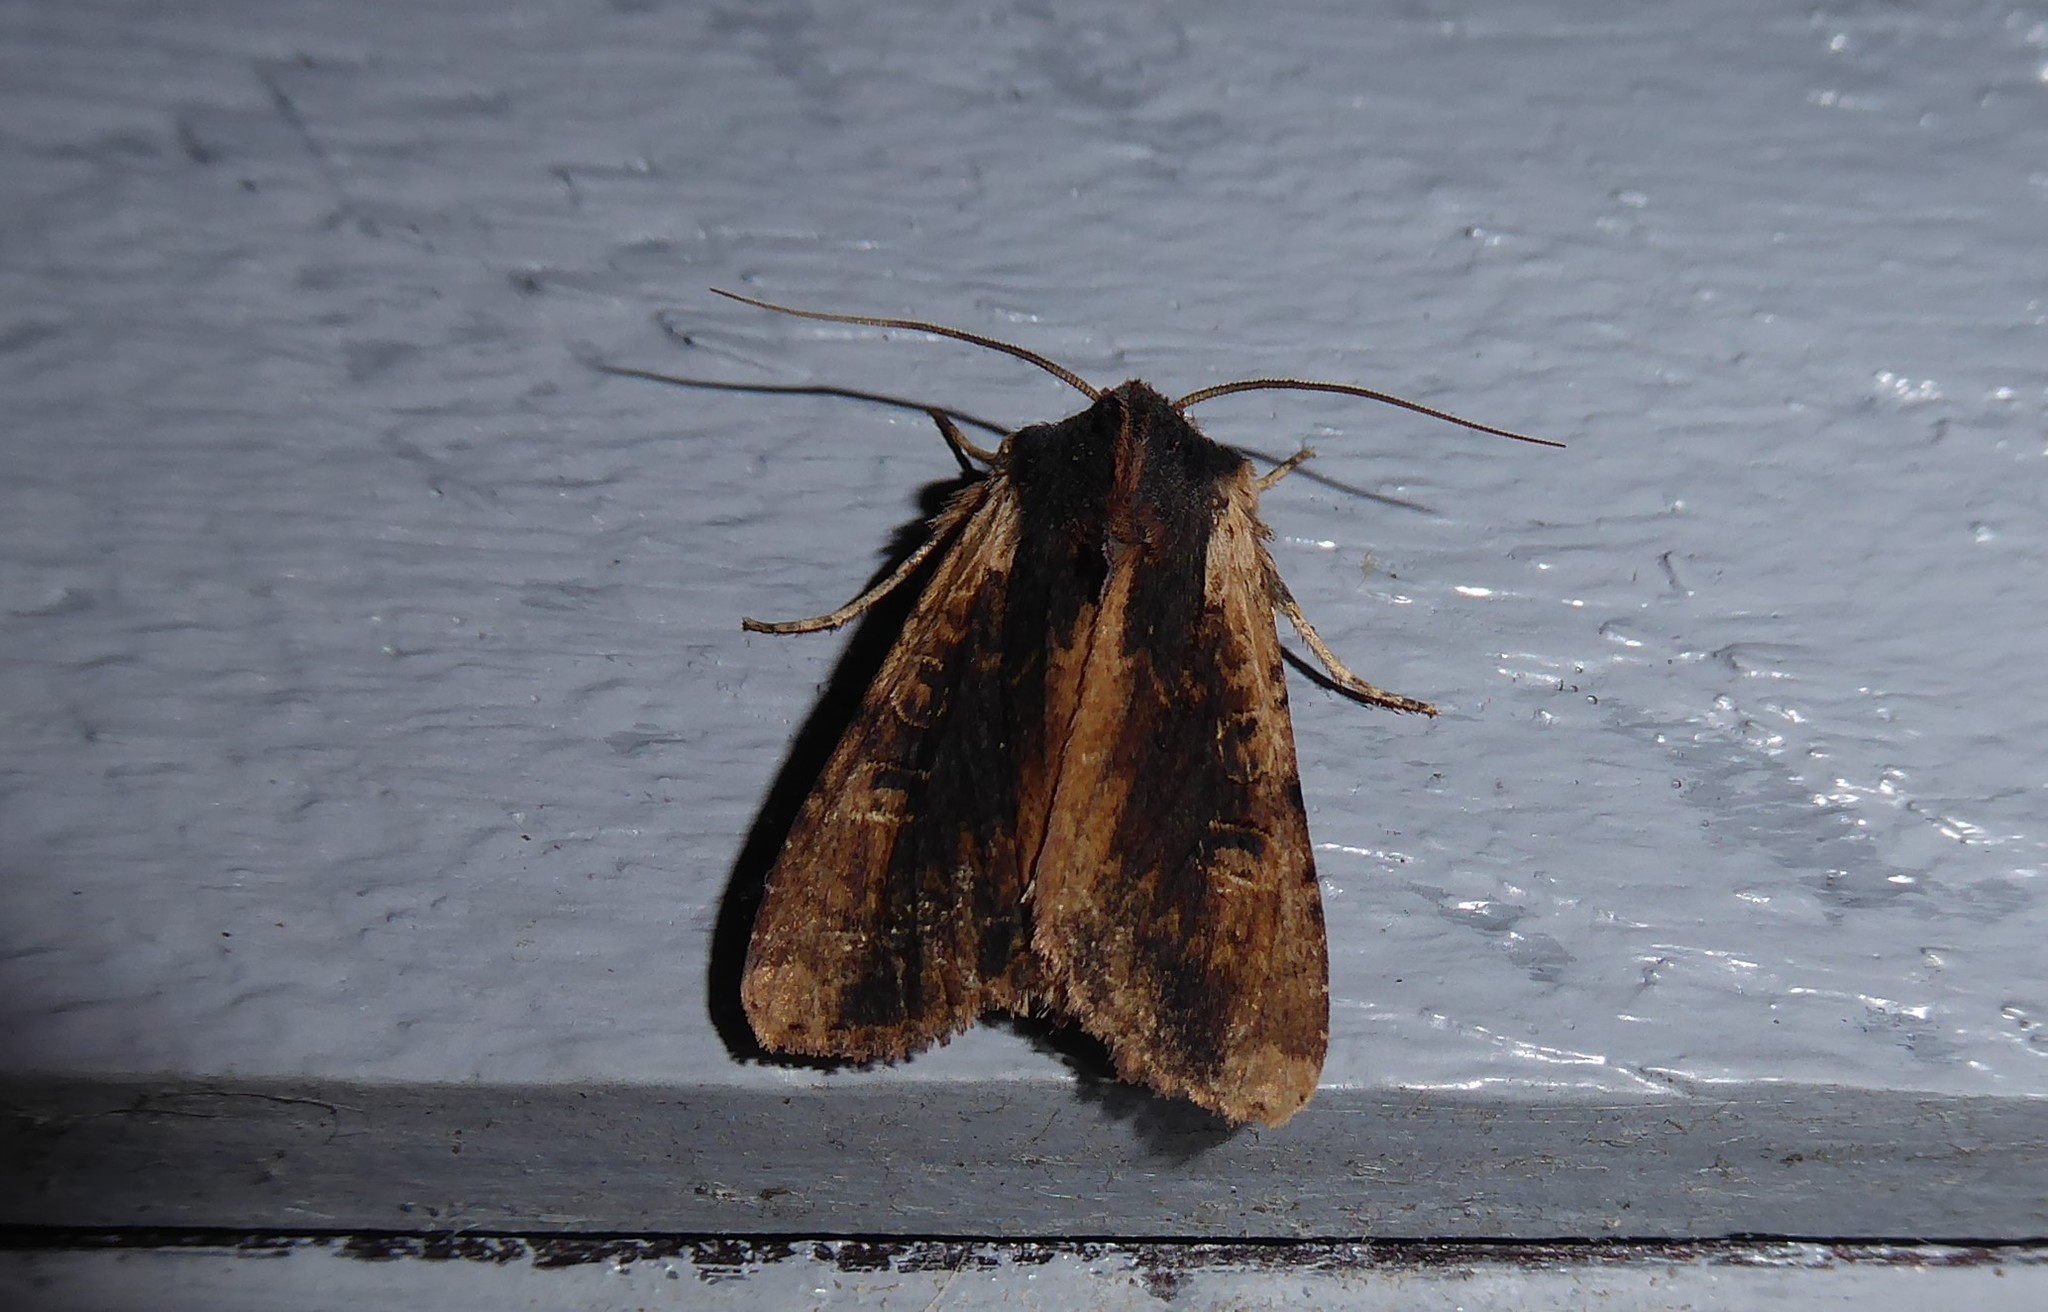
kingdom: Animalia
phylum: Arthropoda
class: Insecta
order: Lepidoptera
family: Noctuidae
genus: Ichneutica
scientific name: Ichneutica omoplaca
